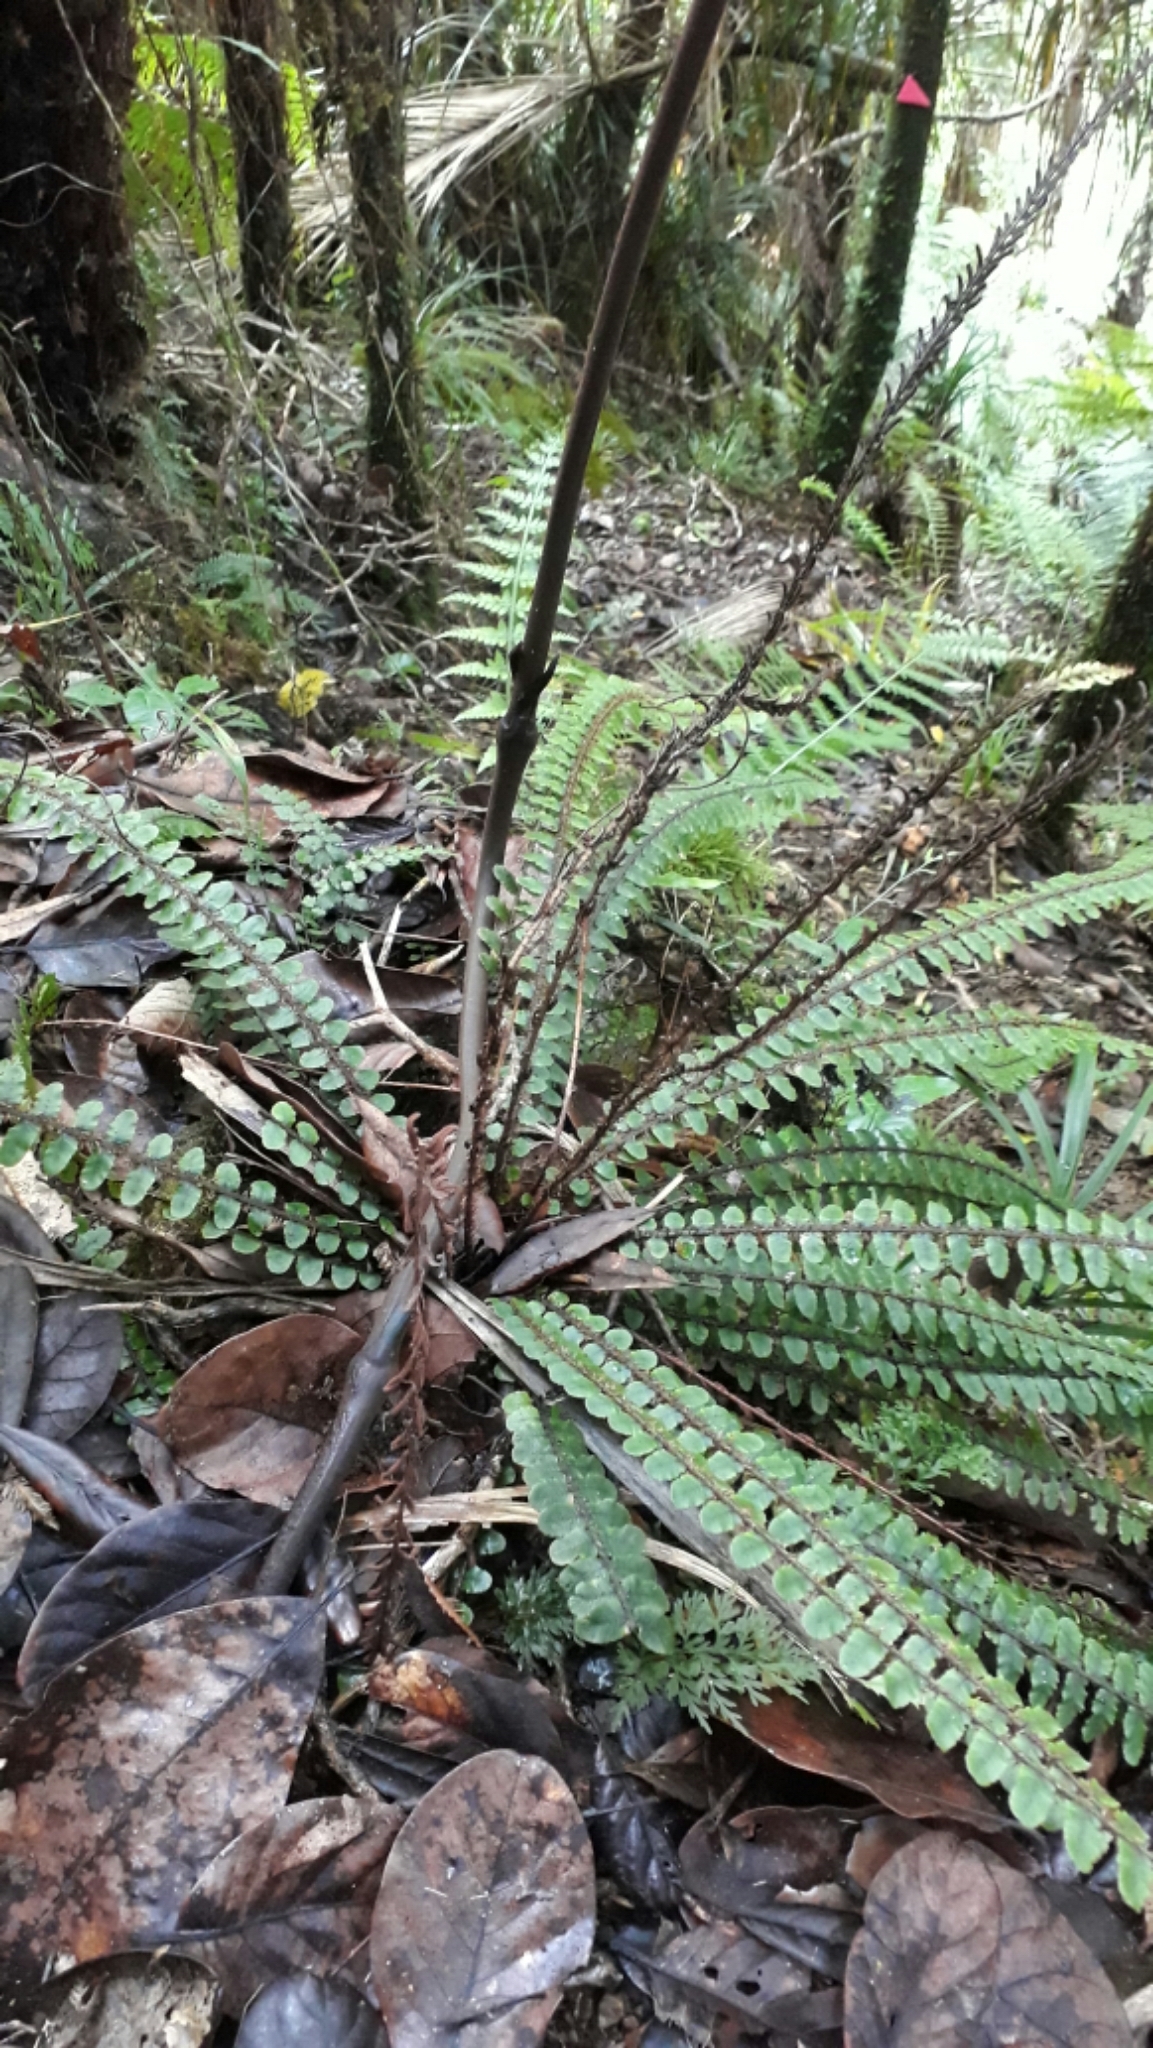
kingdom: Plantae
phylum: Tracheophyta
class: Polypodiopsida
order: Polypodiales
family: Blechnaceae
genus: Cranfillia
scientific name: Cranfillia fluviatilis
